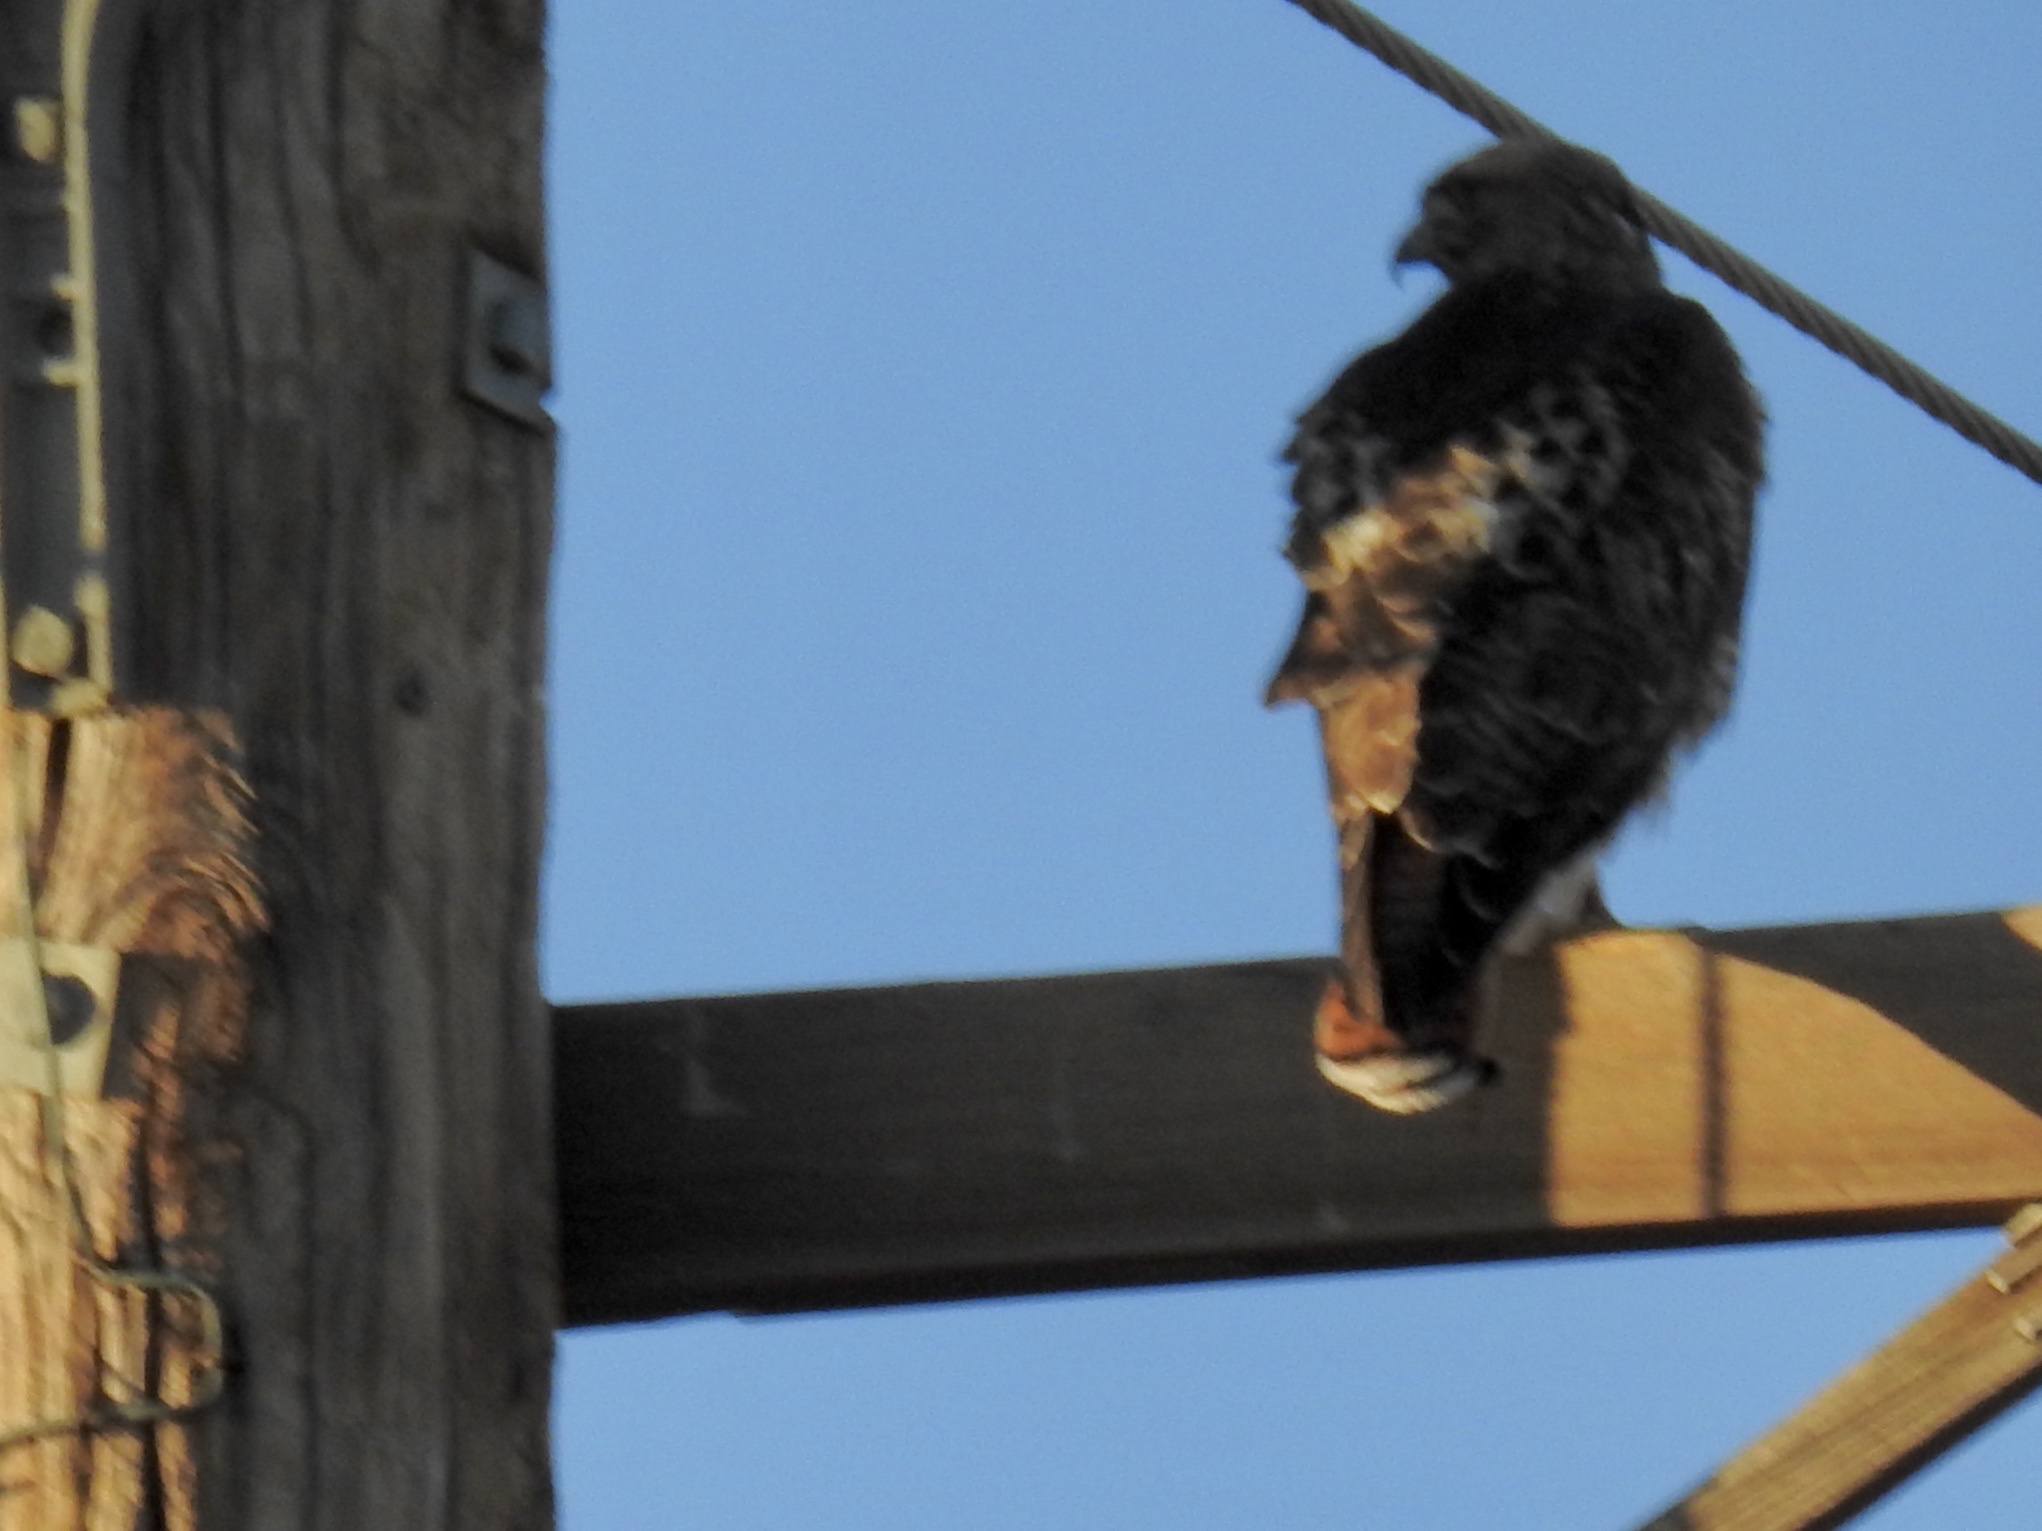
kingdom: Animalia
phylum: Chordata
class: Aves
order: Accipitriformes
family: Accipitridae
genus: Buteo
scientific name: Buteo jamaicensis
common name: Red-tailed hawk
